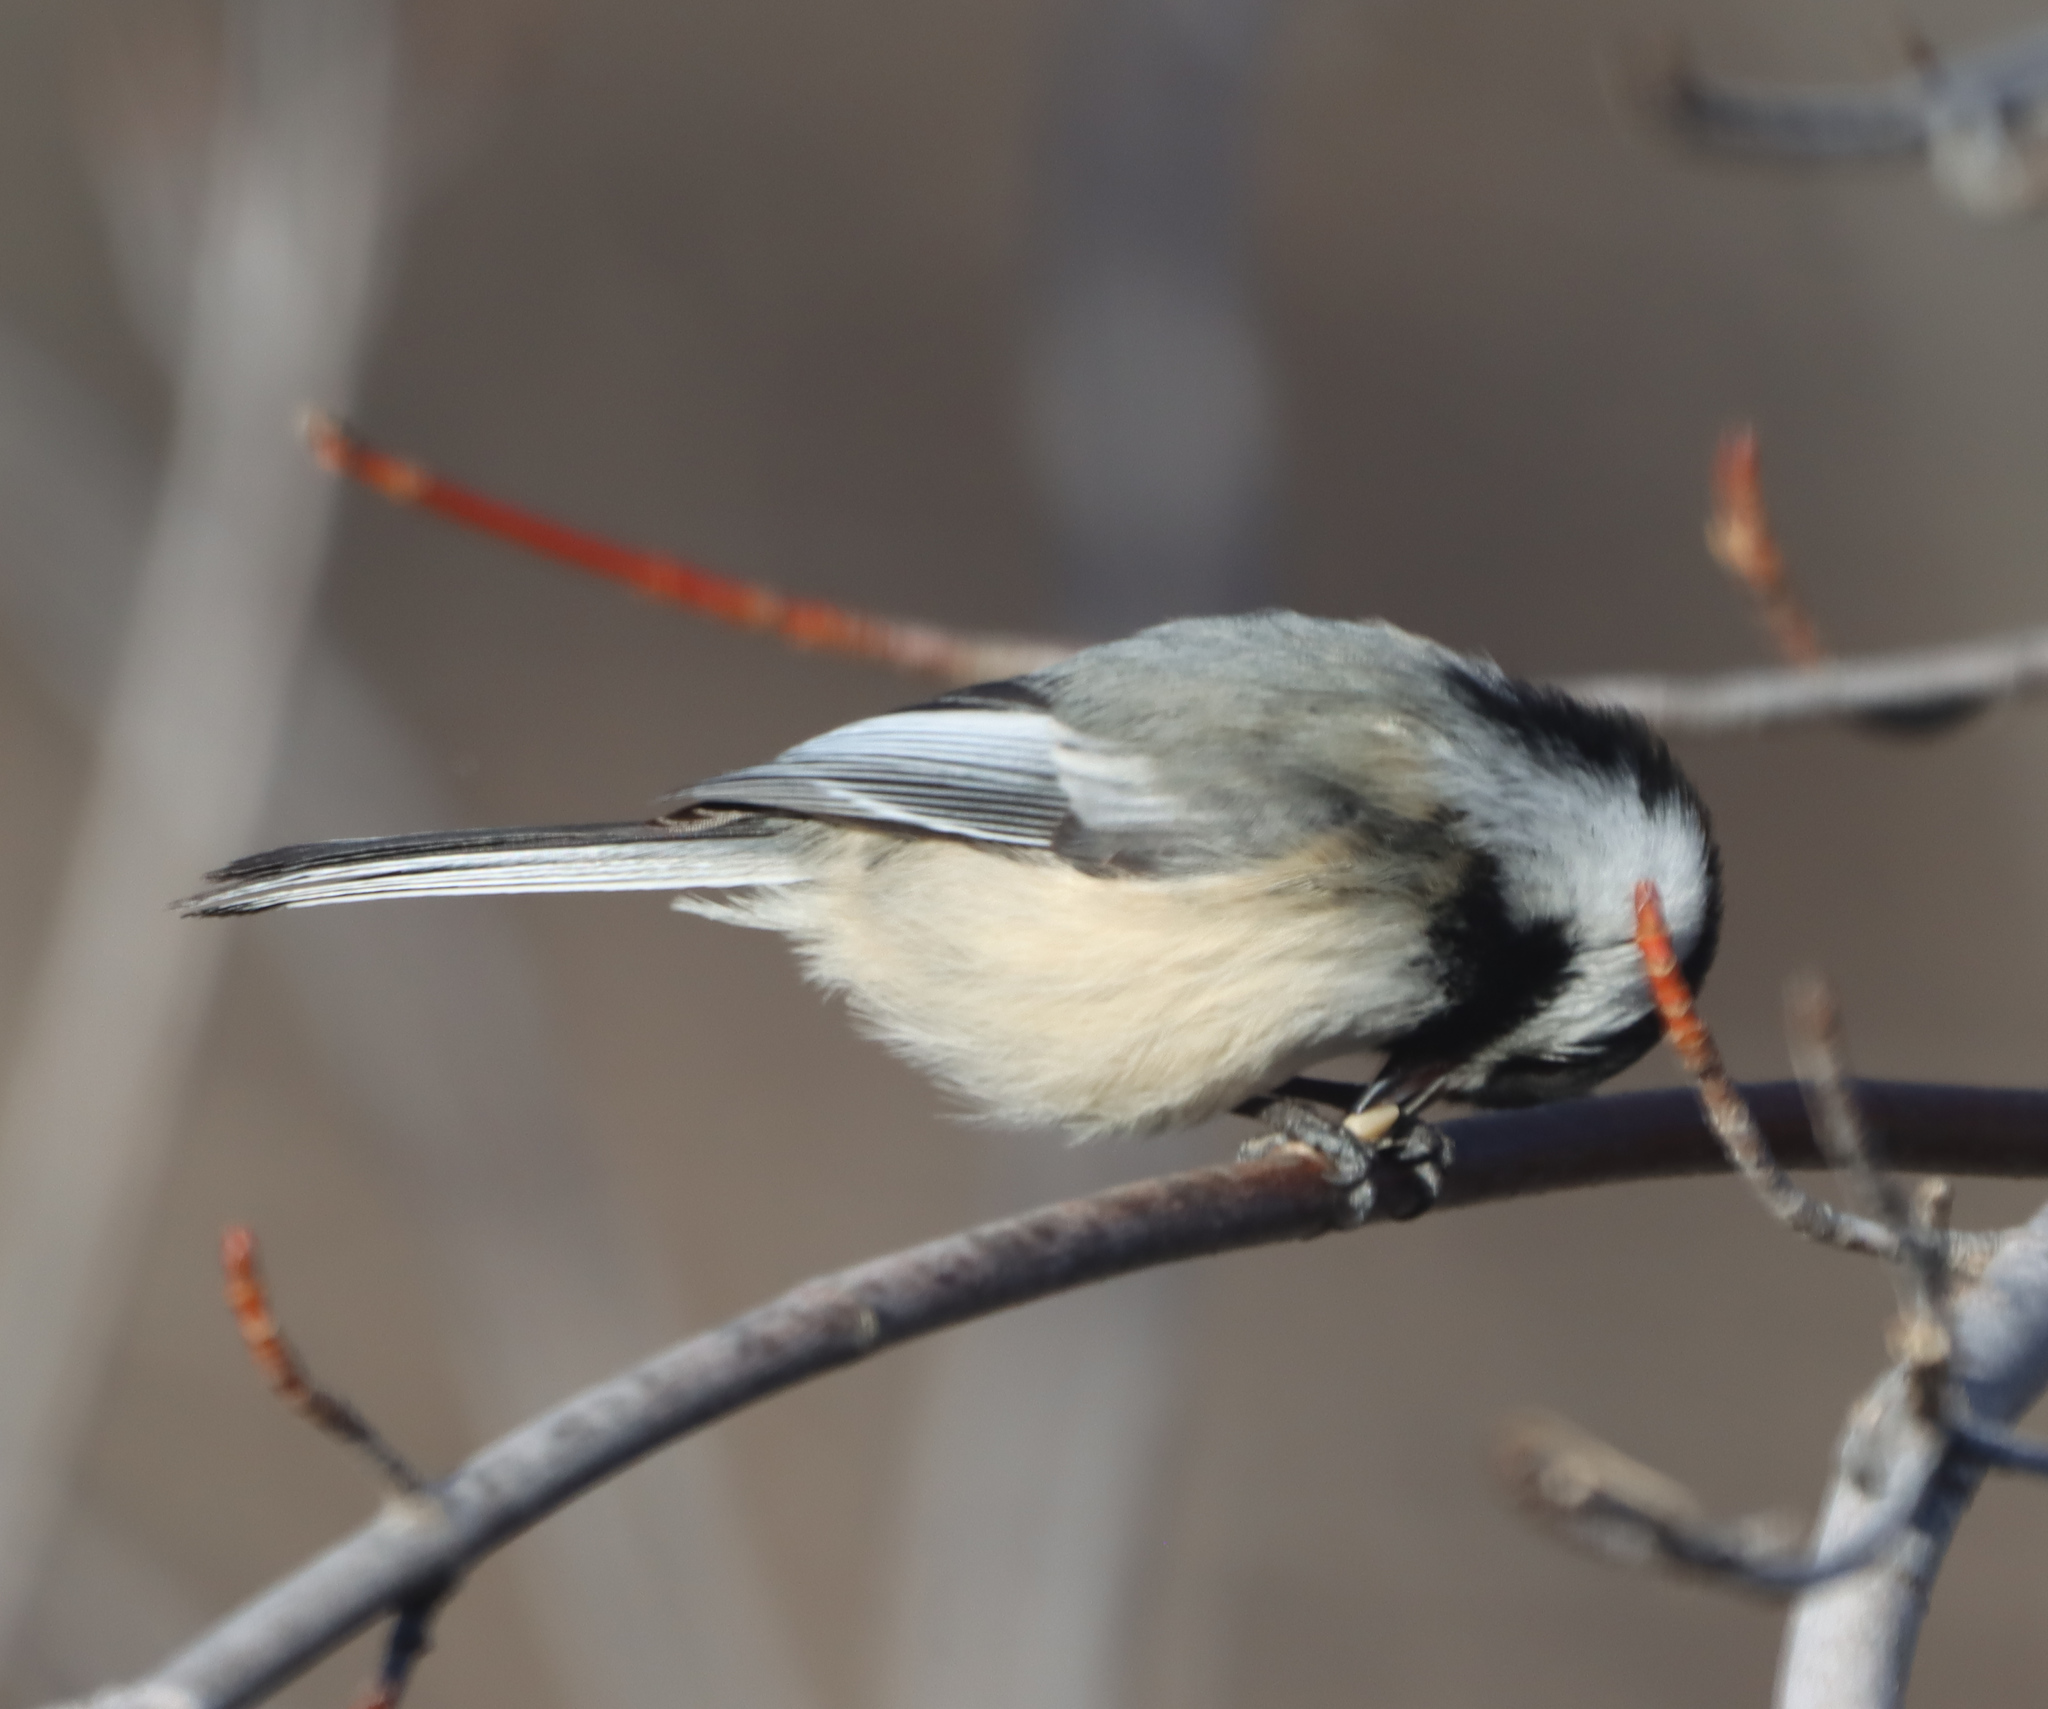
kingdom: Animalia
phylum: Chordata
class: Aves
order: Passeriformes
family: Paridae
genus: Poecile
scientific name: Poecile atricapillus
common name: Black-capped chickadee
